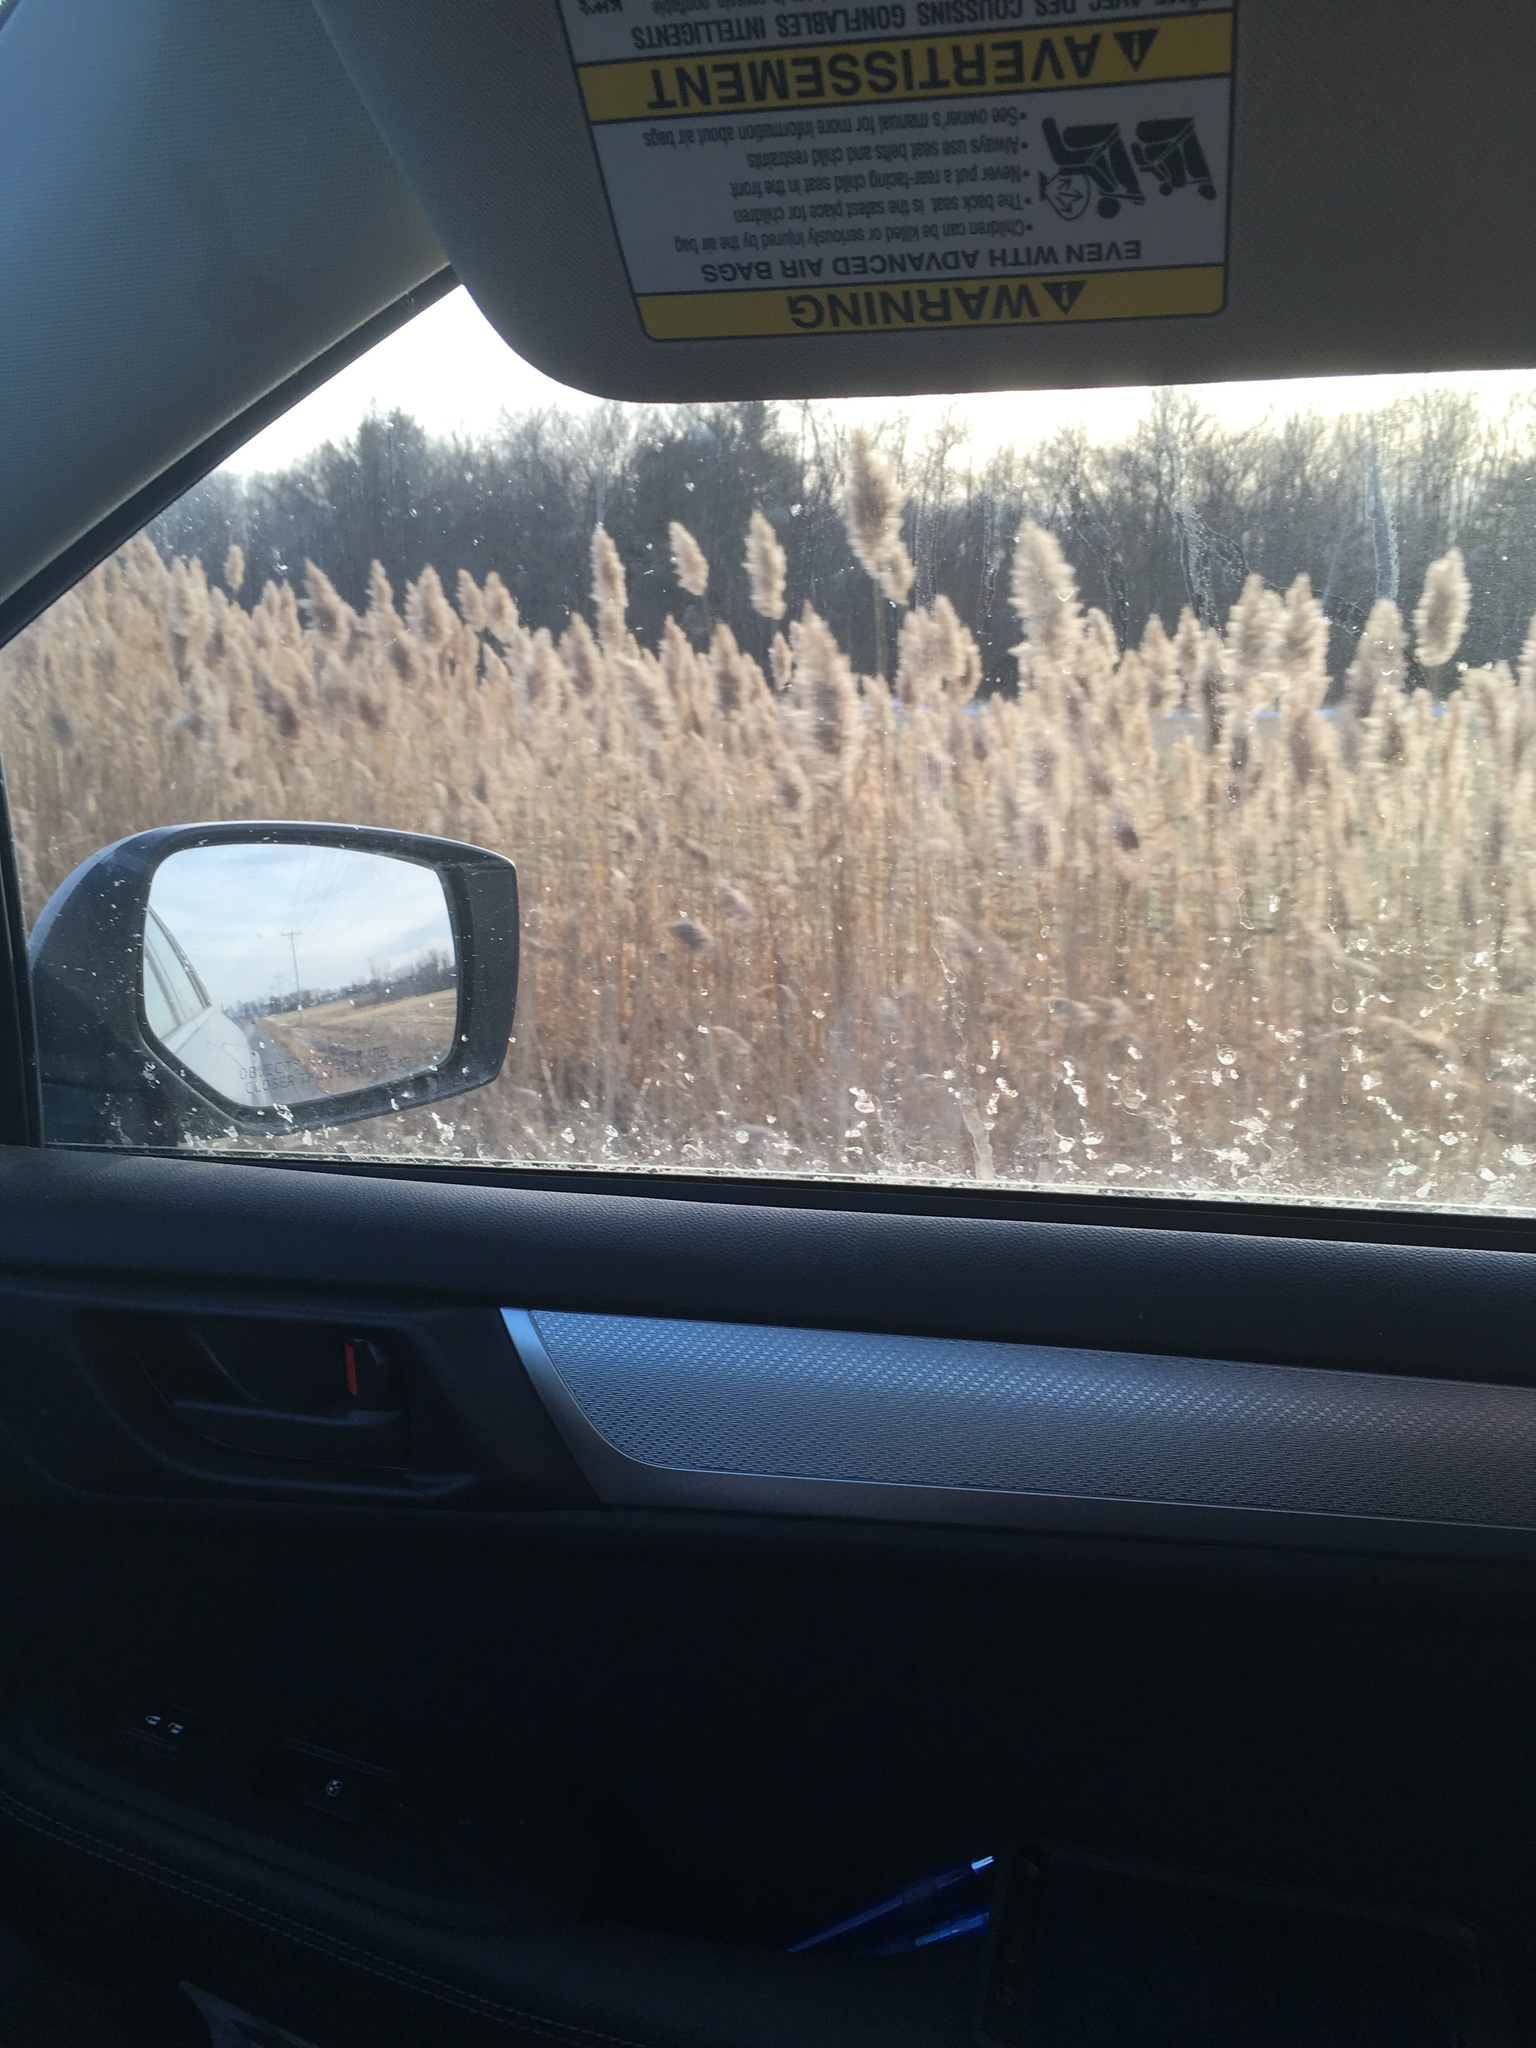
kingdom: Plantae
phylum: Tracheophyta
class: Liliopsida
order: Poales
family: Poaceae
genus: Phragmites
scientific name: Phragmites australis
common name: Common reed
